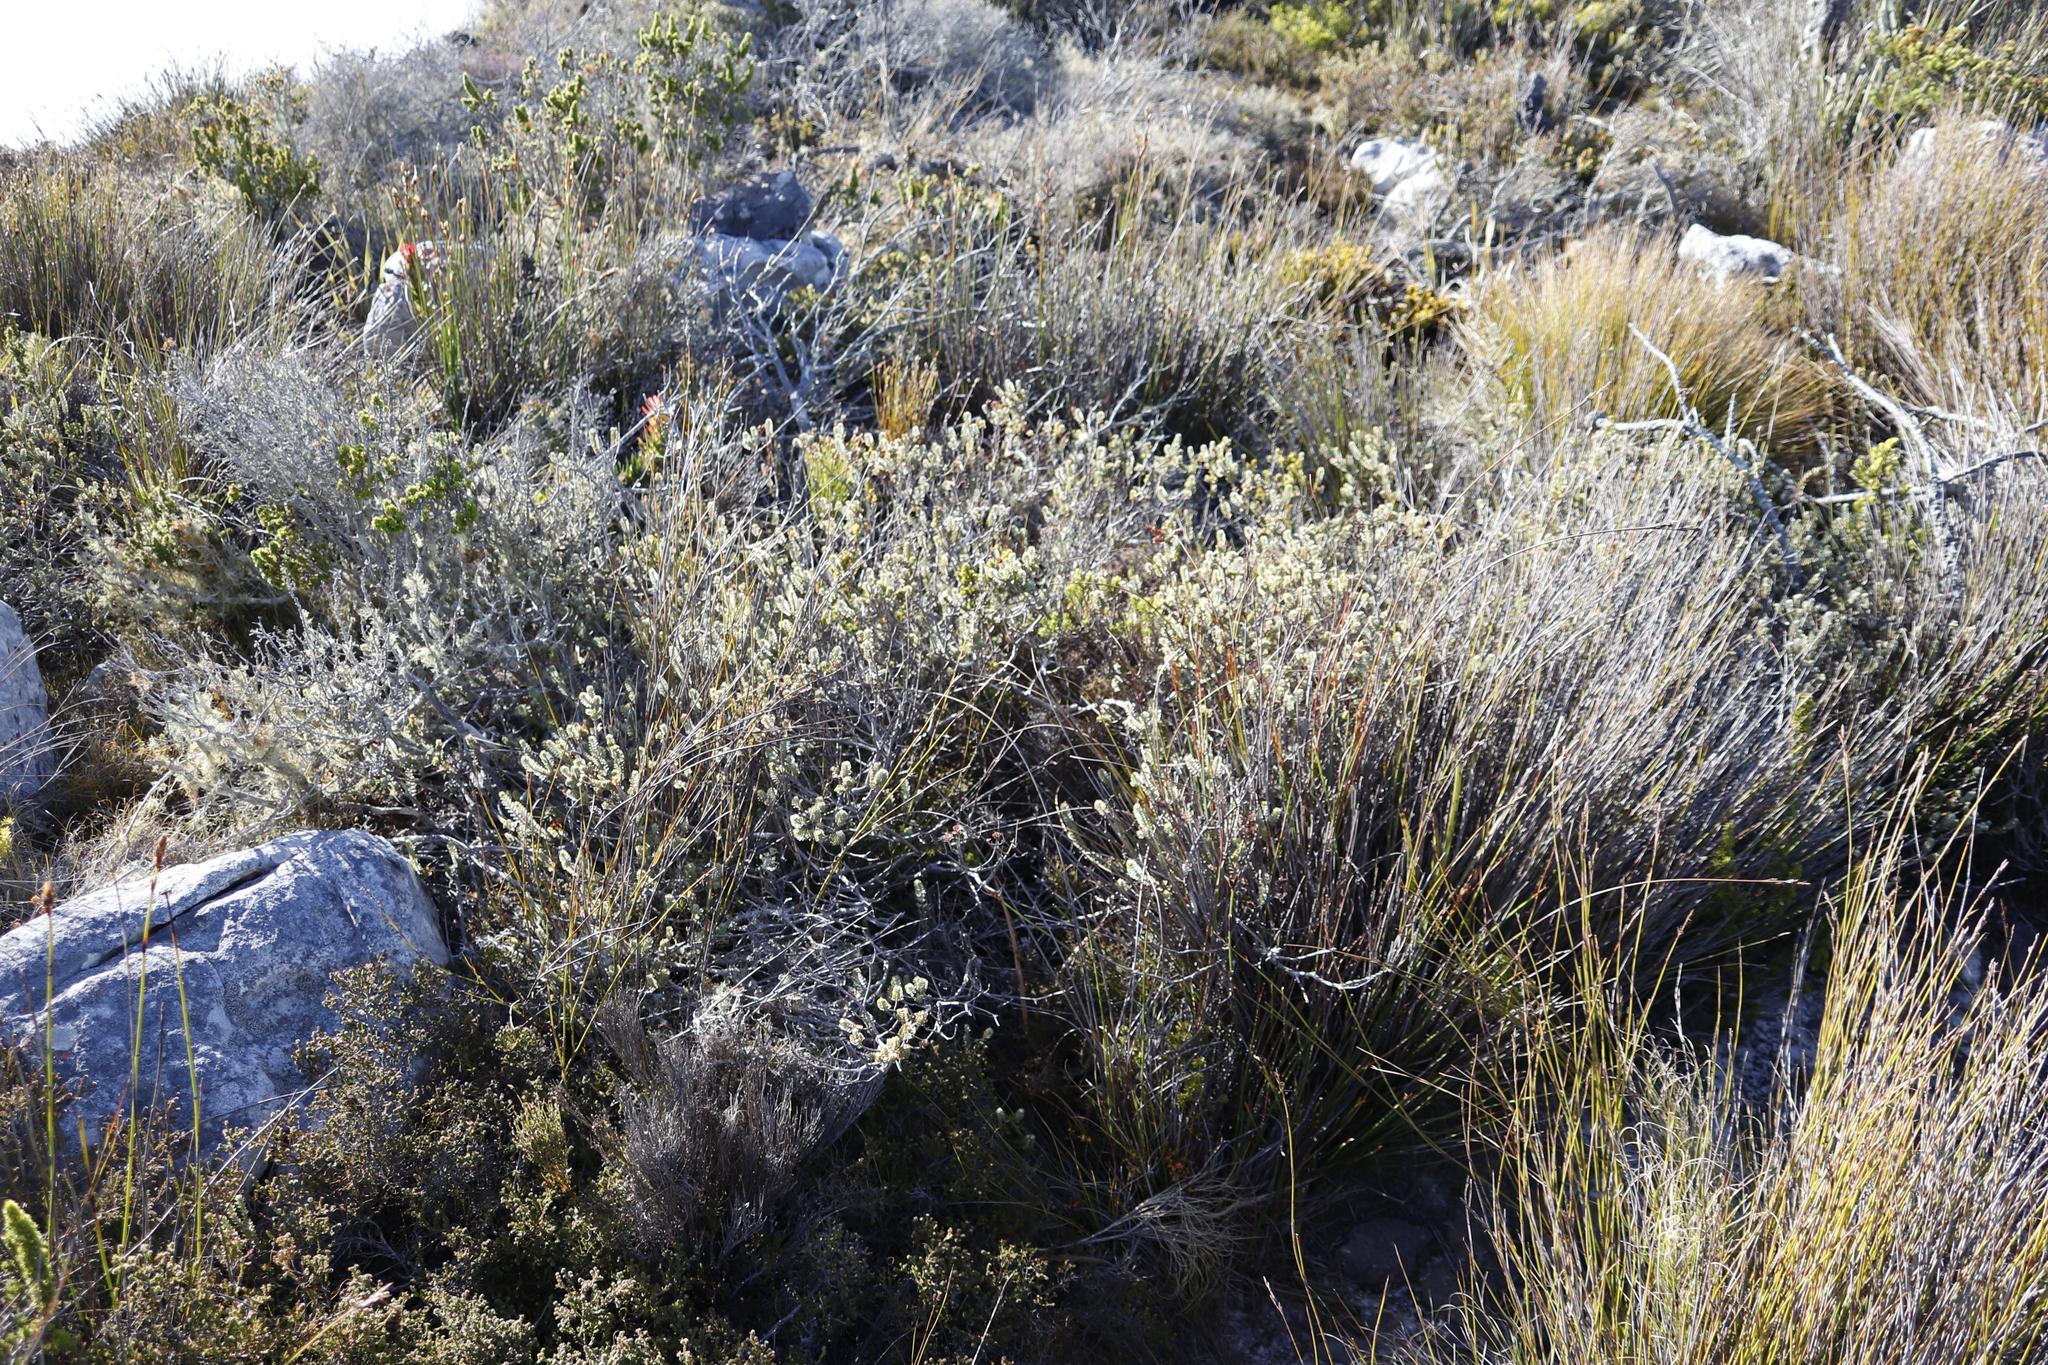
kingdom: Plantae
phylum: Tracheophyta
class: Magnoliopsida
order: Myrtales
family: Penaeaceae
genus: Saltera
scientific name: Saltera sarcocolla
